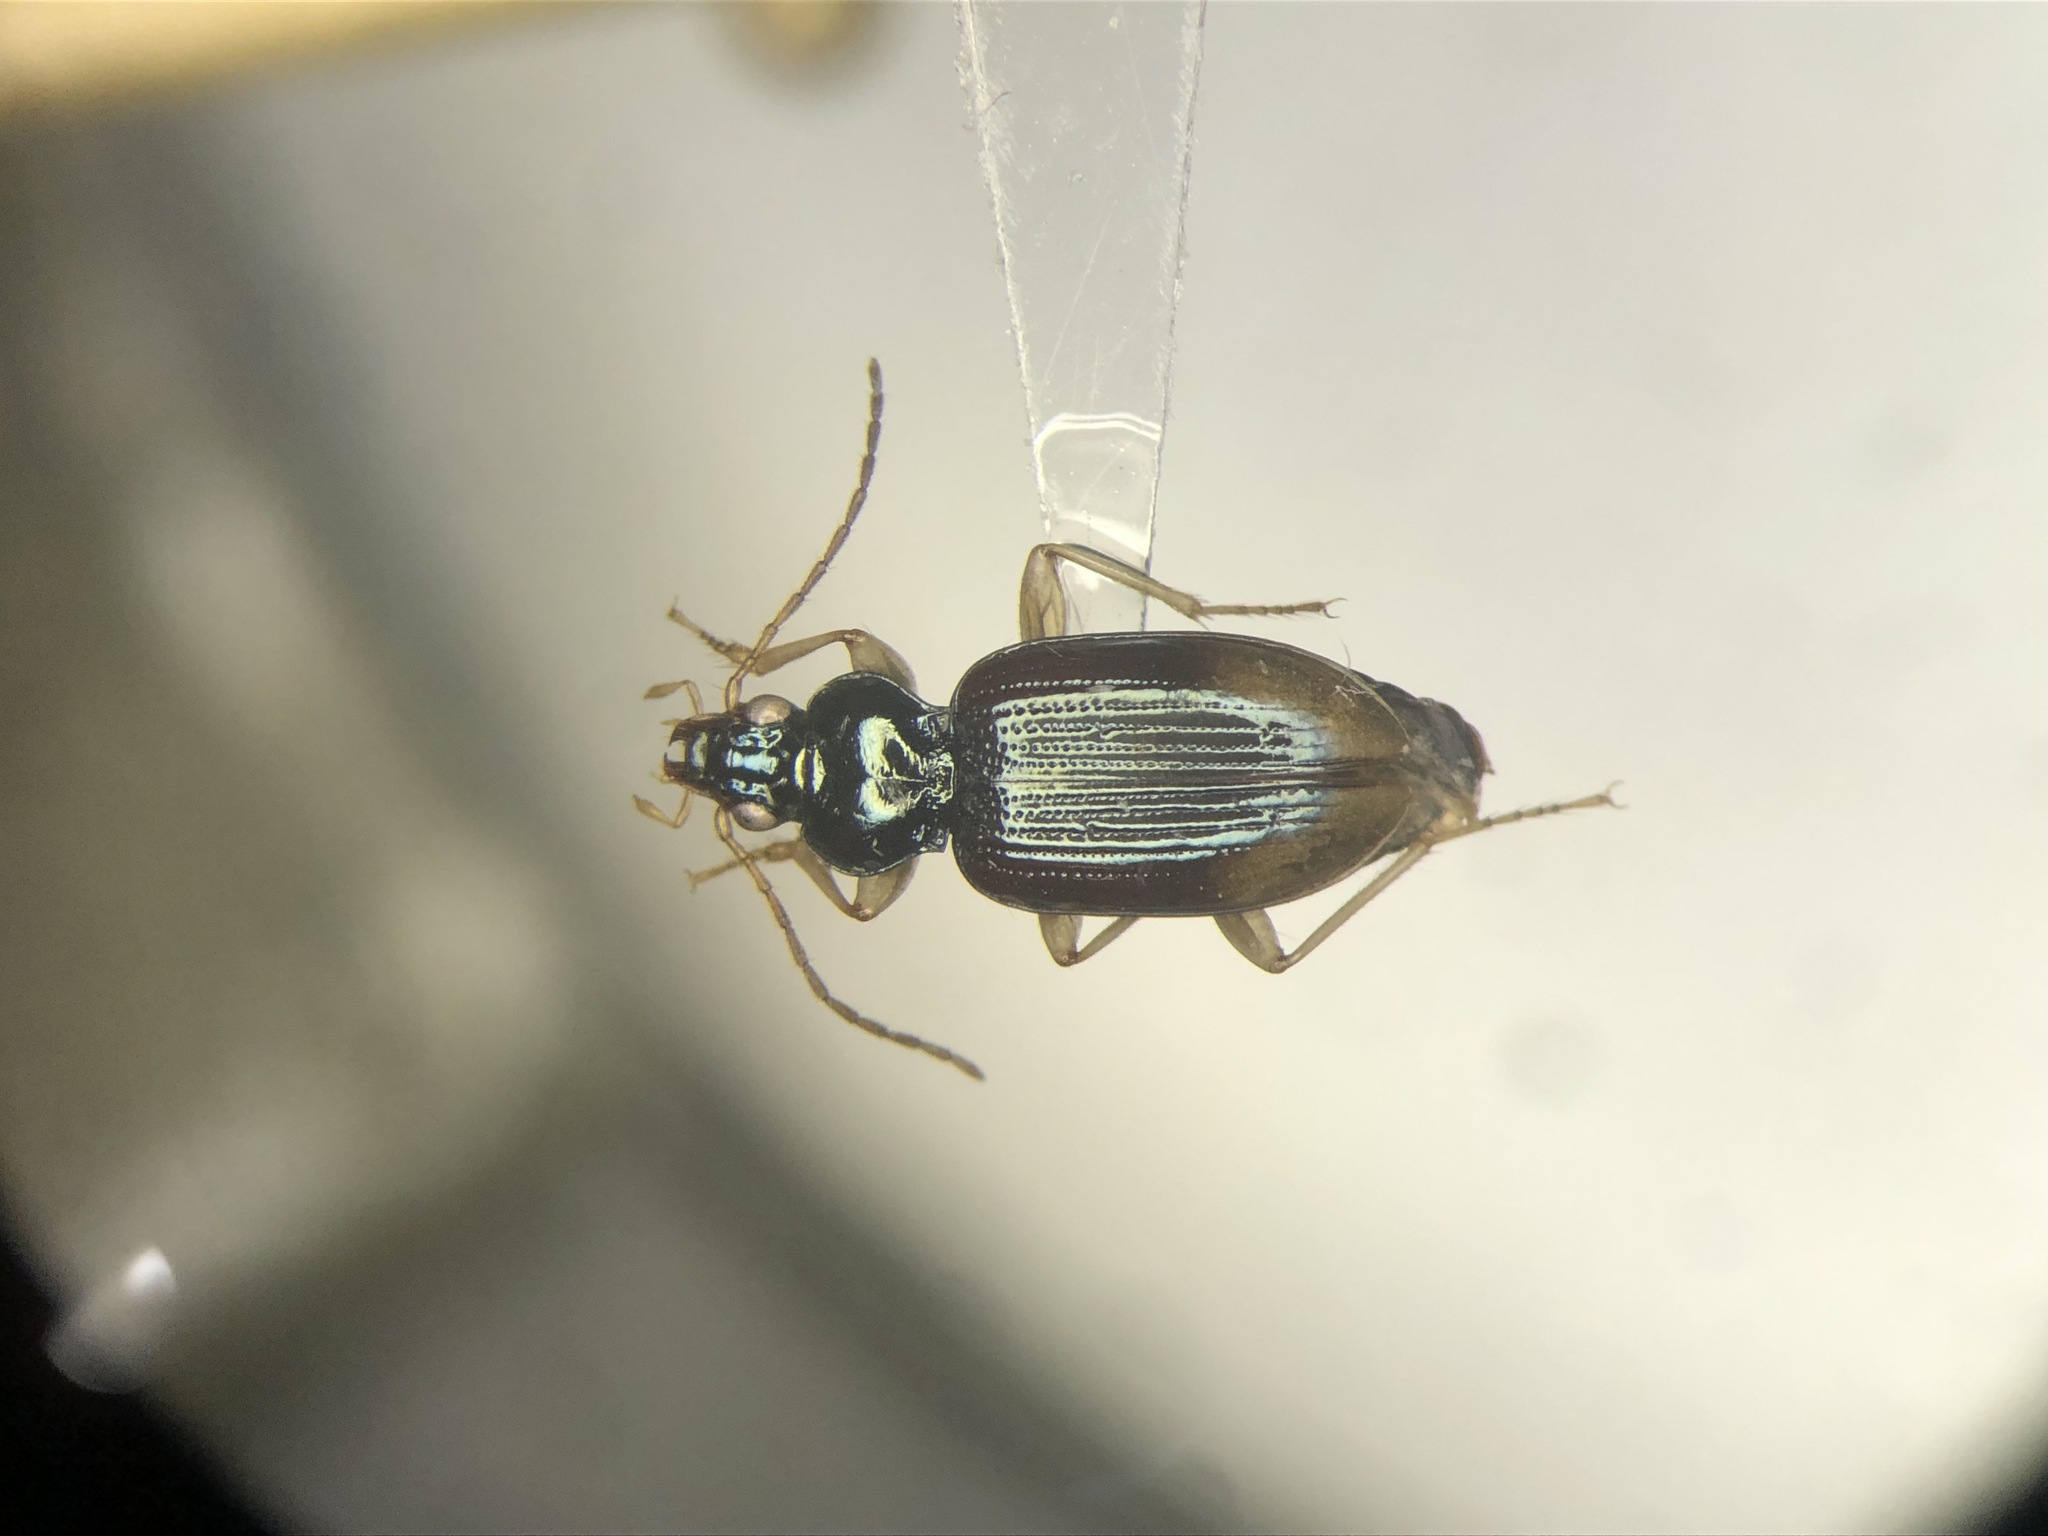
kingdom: Animalia
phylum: Arthropoda
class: Insecta
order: Coleoptera
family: Carabidae
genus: Bembidion
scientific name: Bembidion postremum
